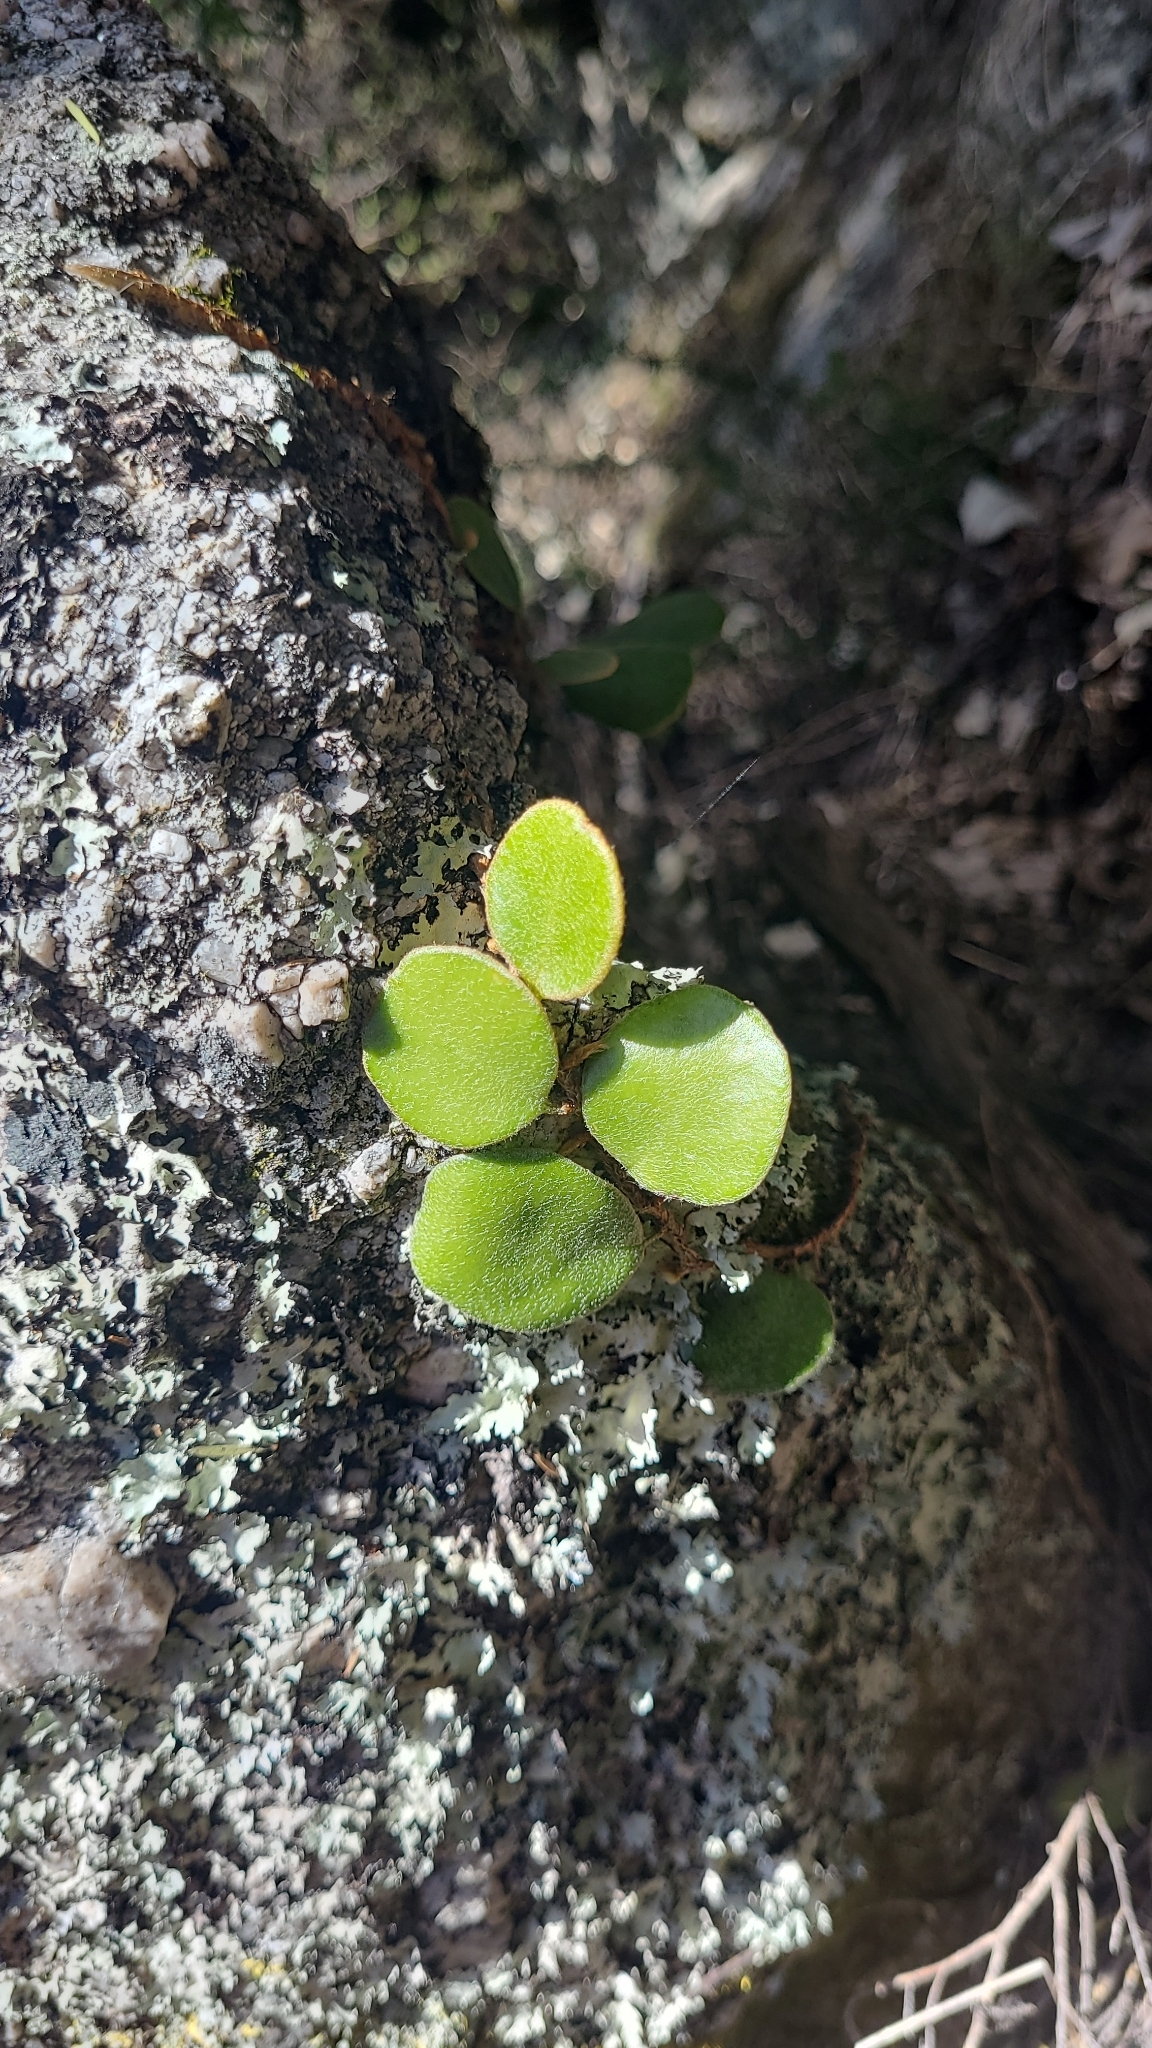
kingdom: Plantae
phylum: Tracheophyta
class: Polypodiopsida
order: Polypodiales
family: Polypodiaceae
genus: Pyrrosia
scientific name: Pyrrosia eleagnifolia
